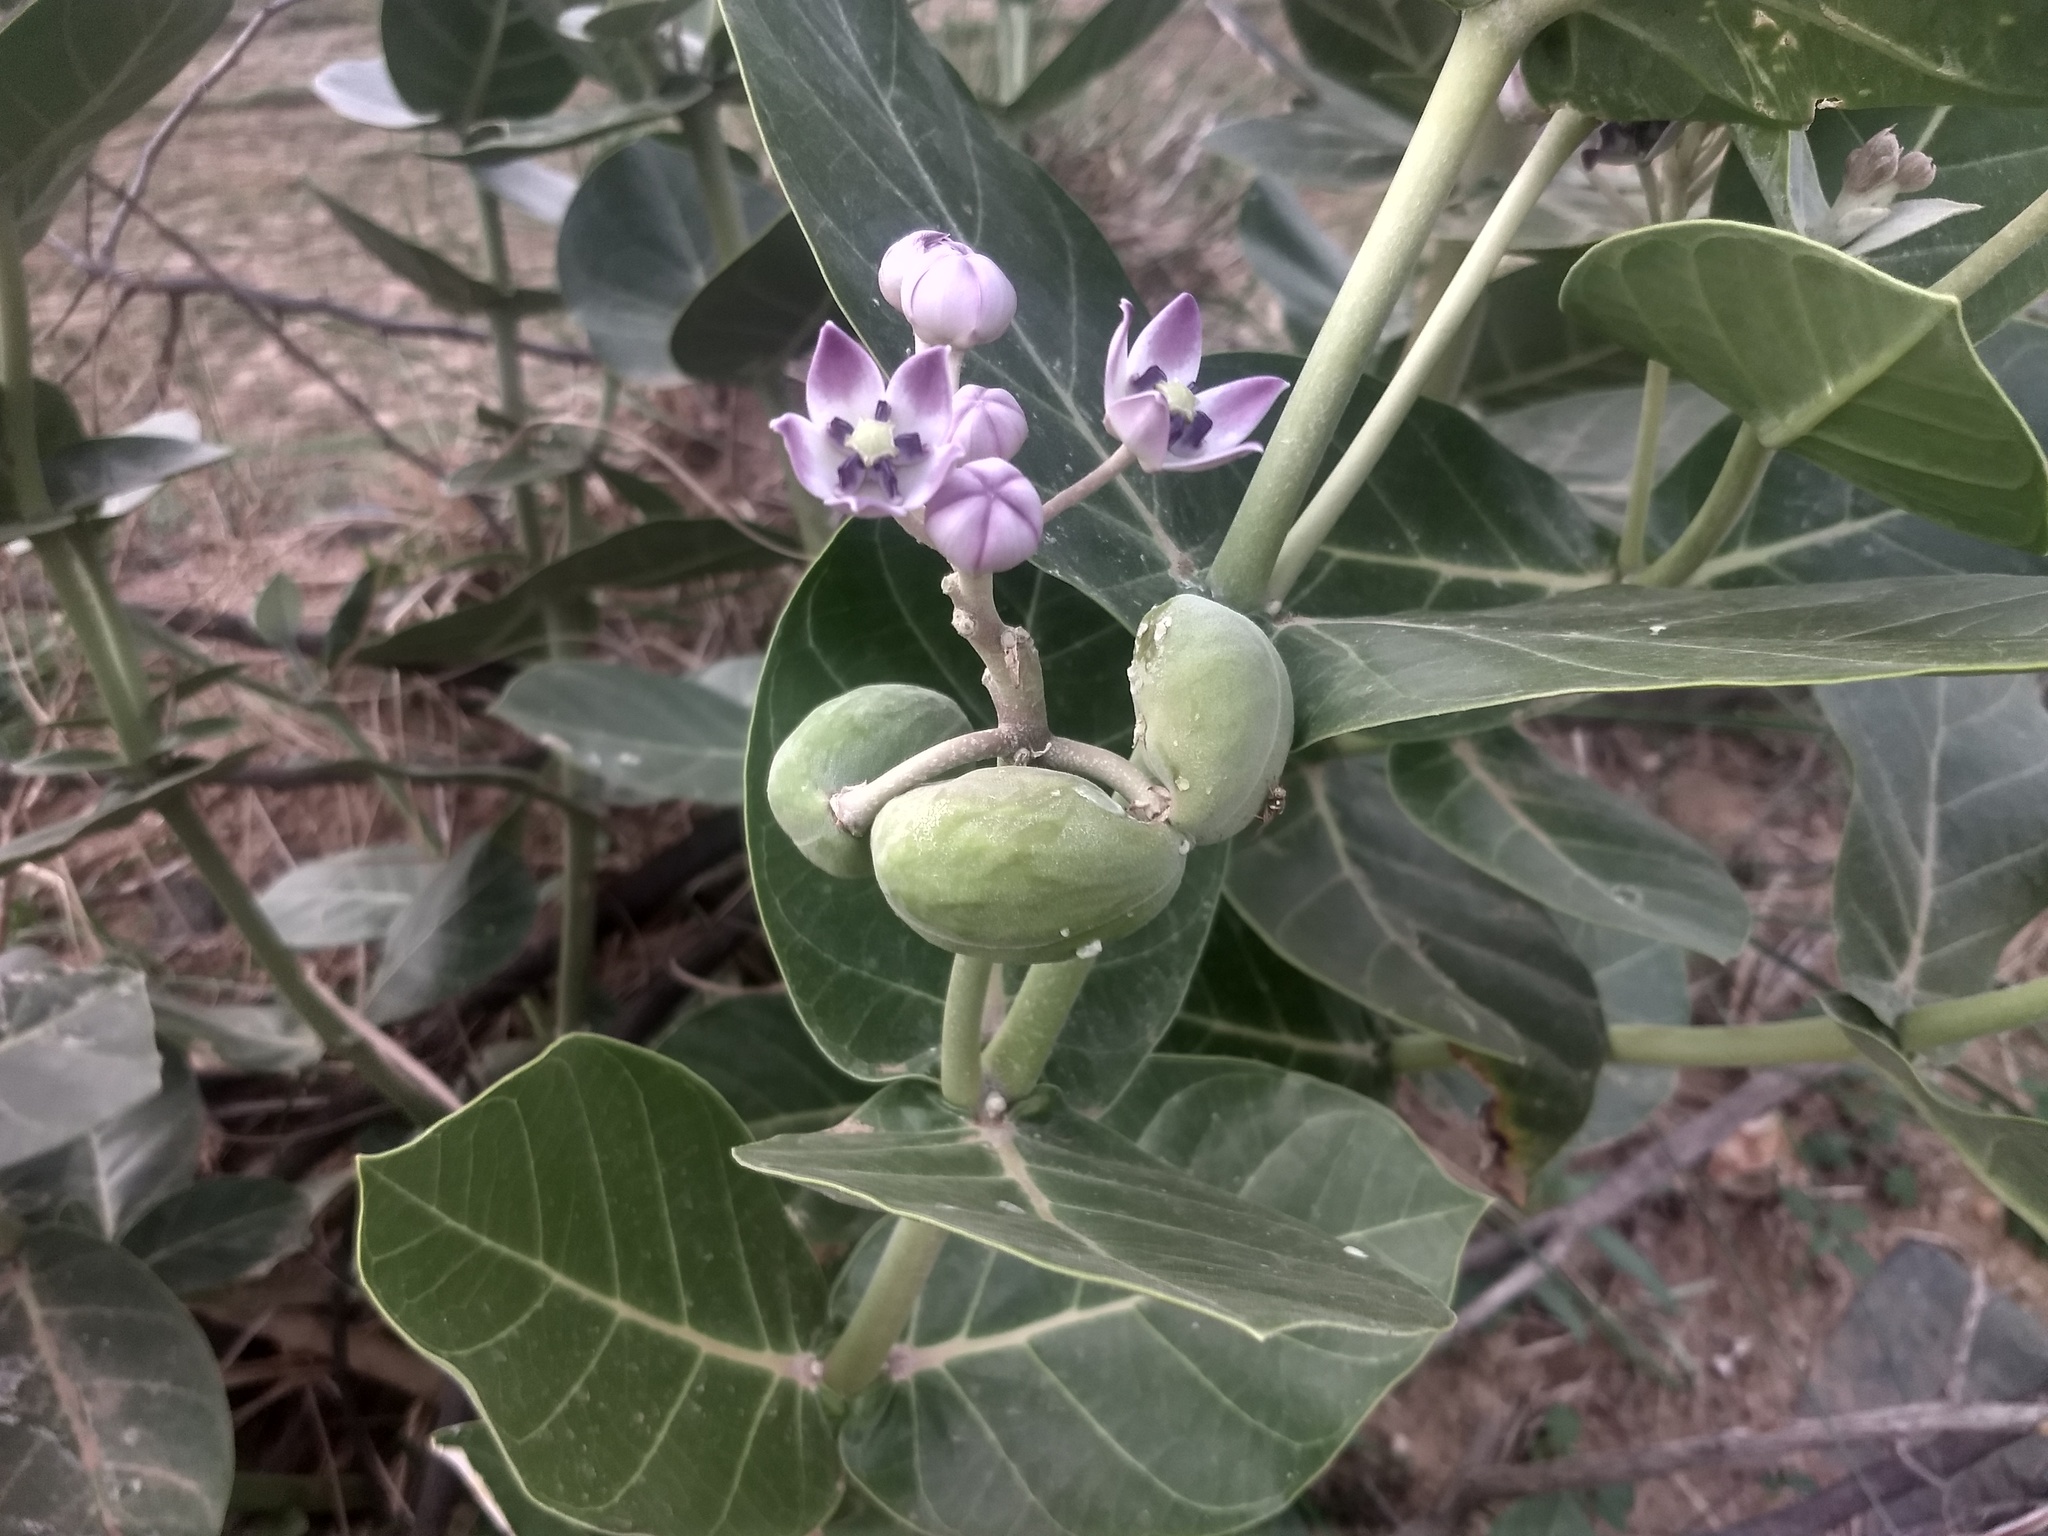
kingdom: Plantae
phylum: Tracheophyta
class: Magnoliopsida
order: Gentianales
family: Apocynaceae
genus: Calotropis
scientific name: Calotropis procera
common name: Roostertree
